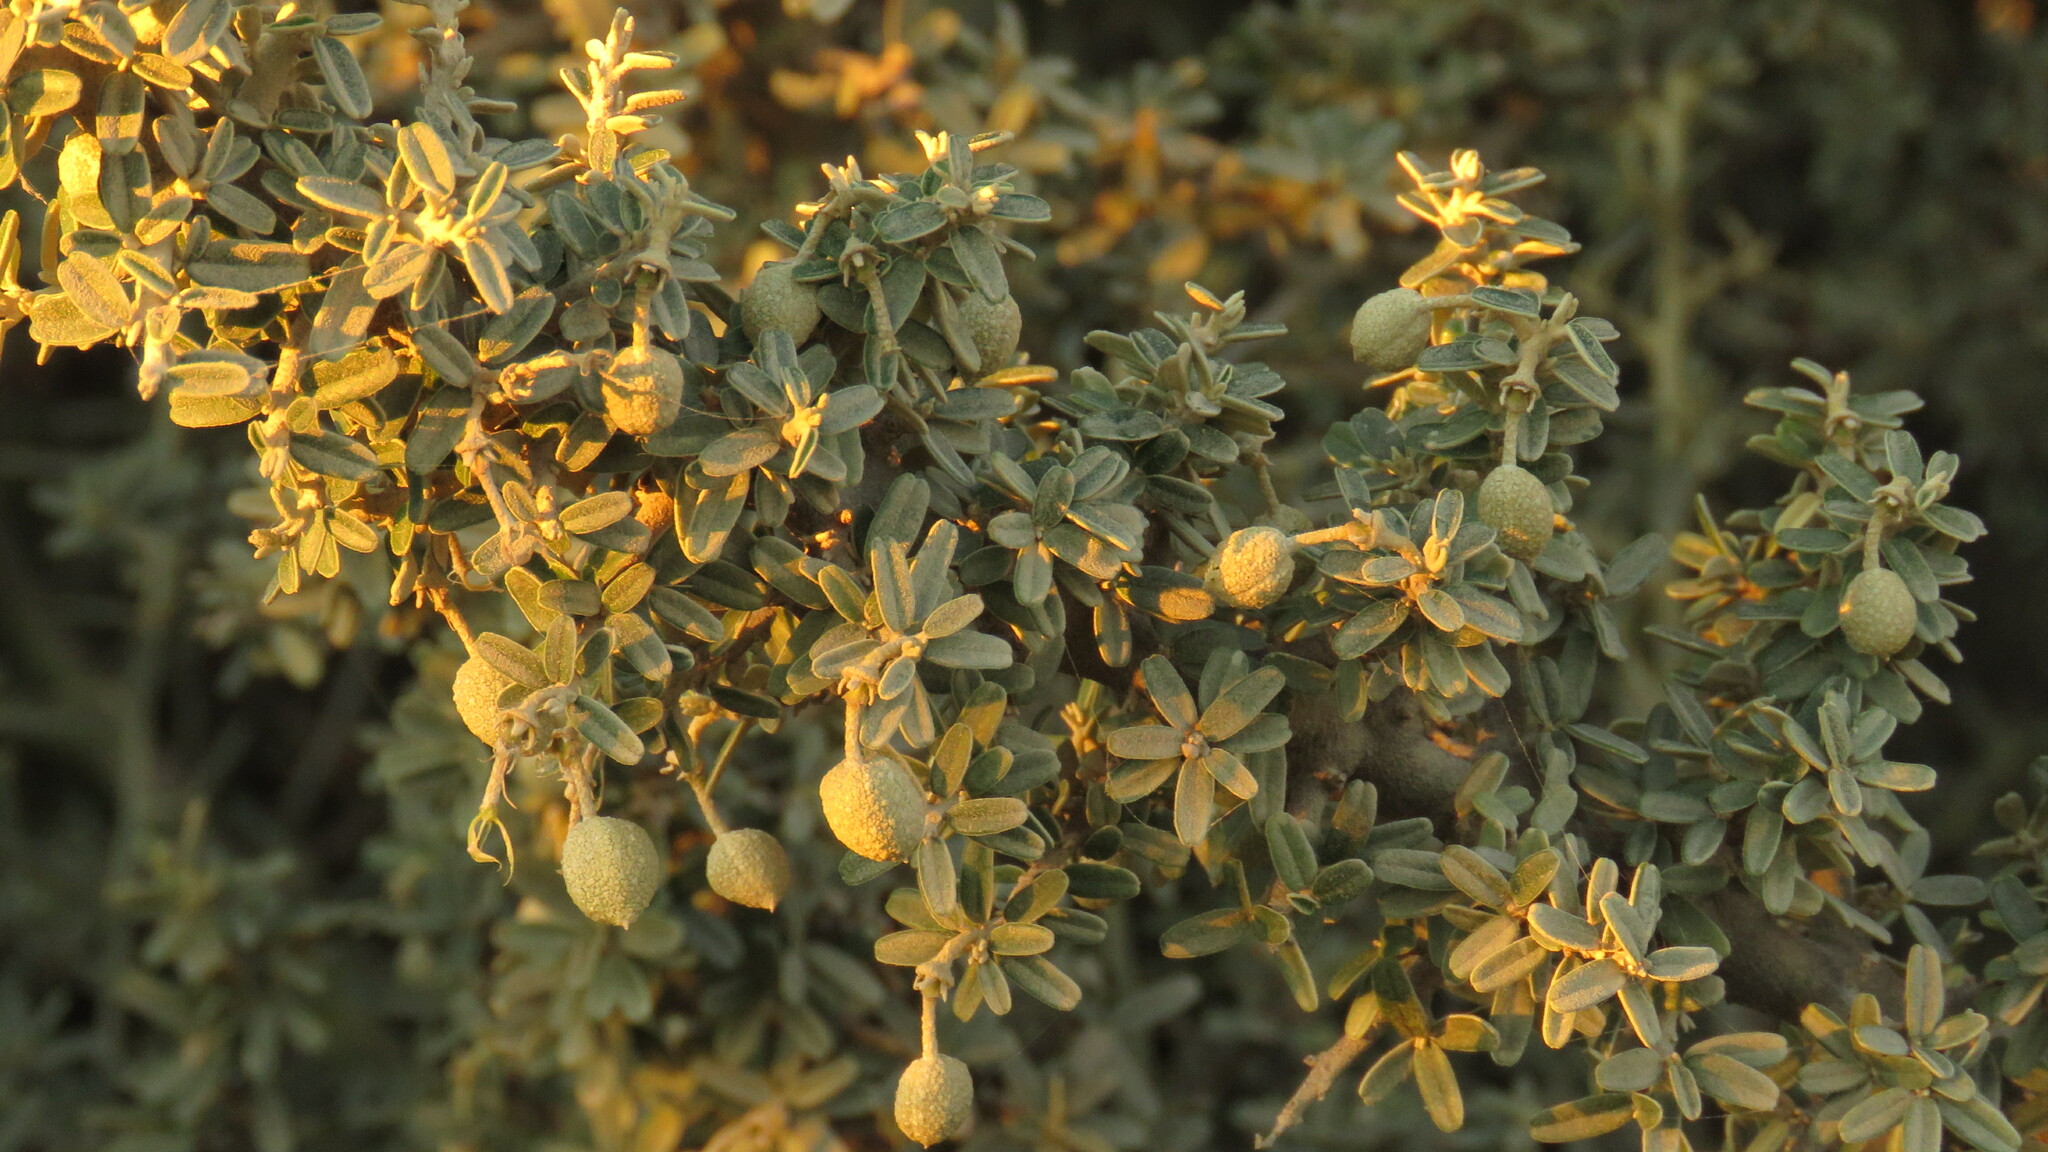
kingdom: Plantae
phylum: Tracheophyta
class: Magnoliopsida
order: Brassicales
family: Capparaceae
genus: Atamisquea
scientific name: Atamisquea emarginata
